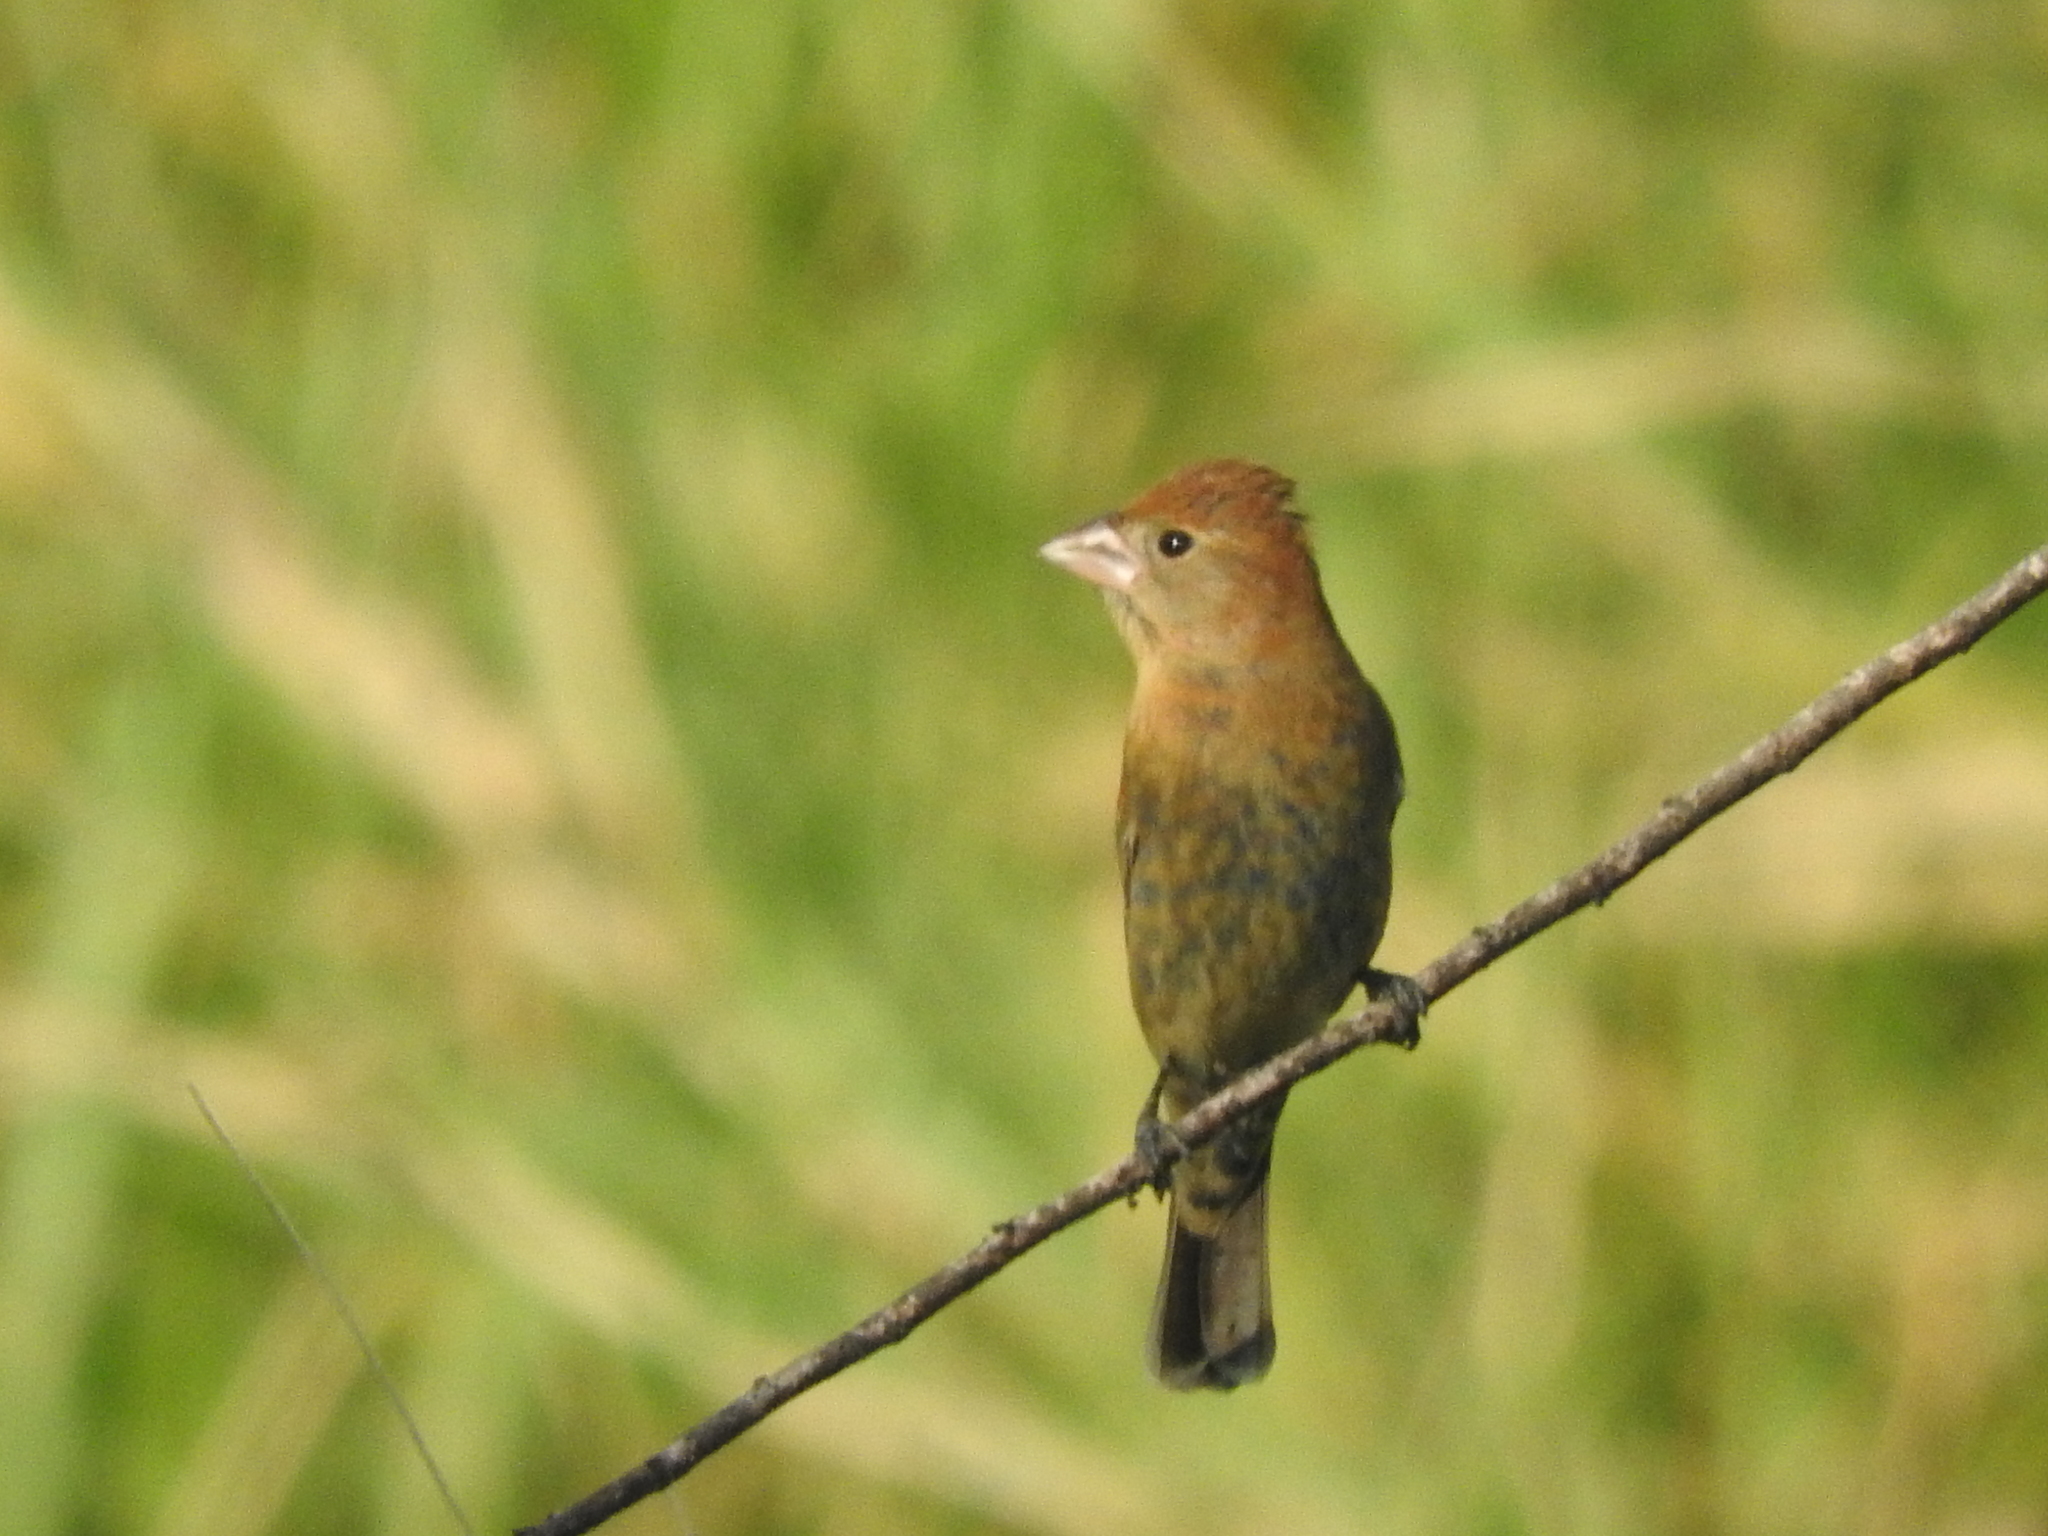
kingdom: Animalia
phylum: Chordata
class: Aves
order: Passeriformes
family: Cardinalidae
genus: Passerina
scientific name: Passerina caerulea
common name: Blue grosbeak
